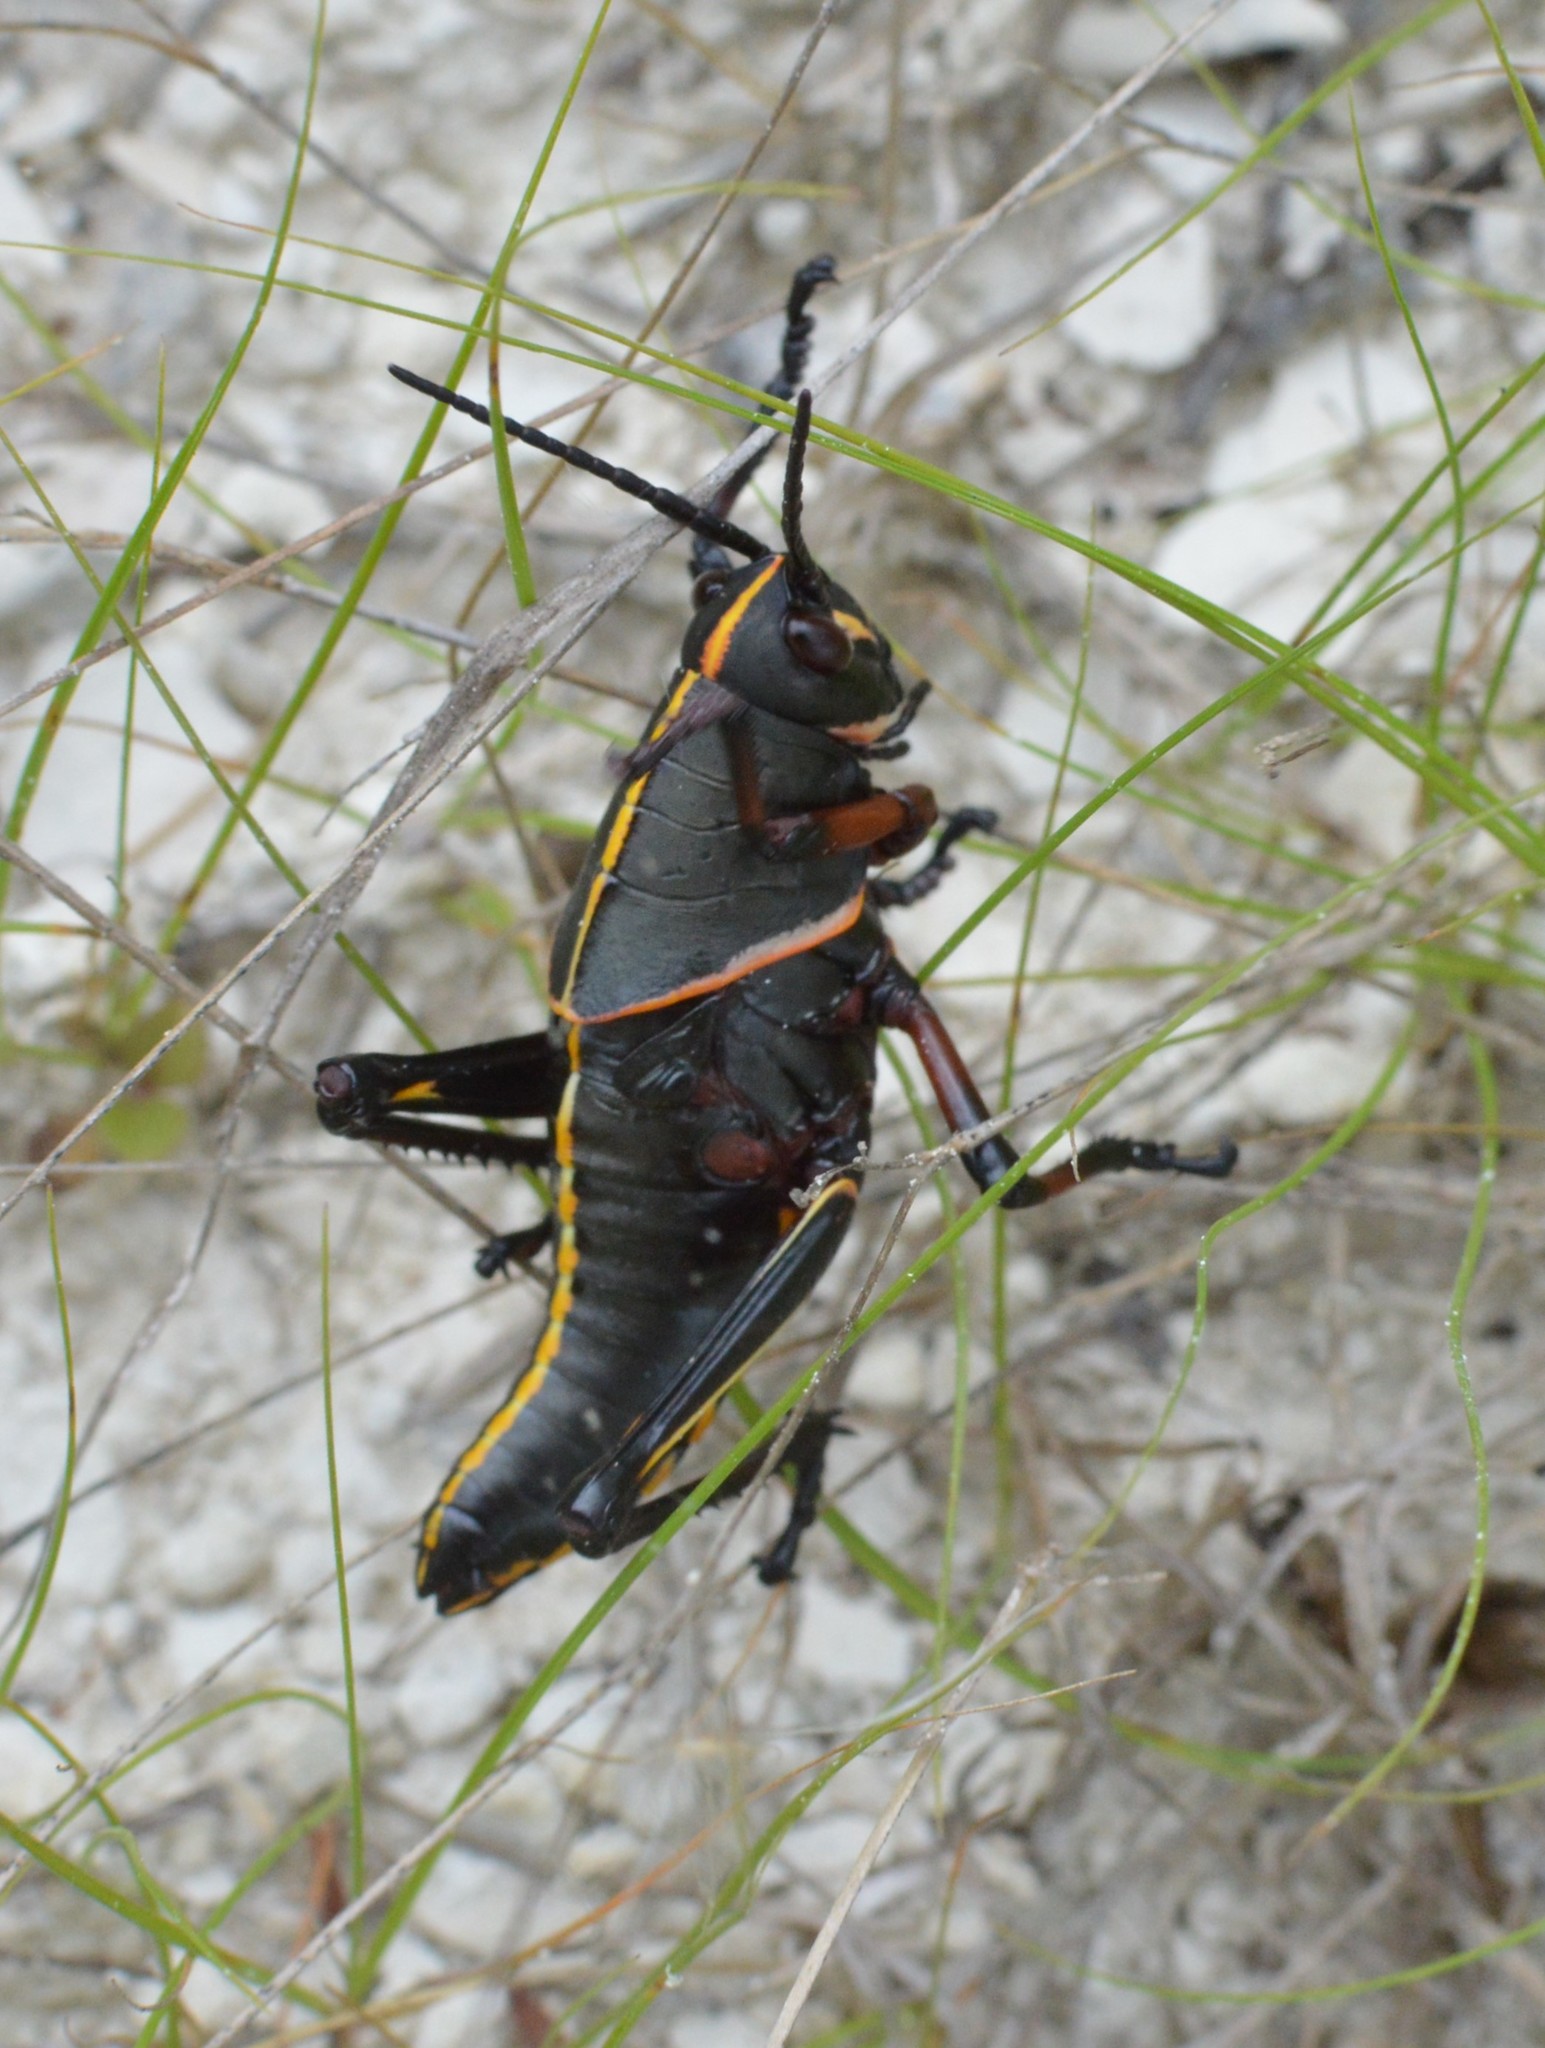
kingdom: Animalia
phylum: Arthropoda
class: Insecta
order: Orthoptera
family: Romaleidae
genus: Romalea
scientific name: Romalea microptera
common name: Eastern lubber grasshopper
